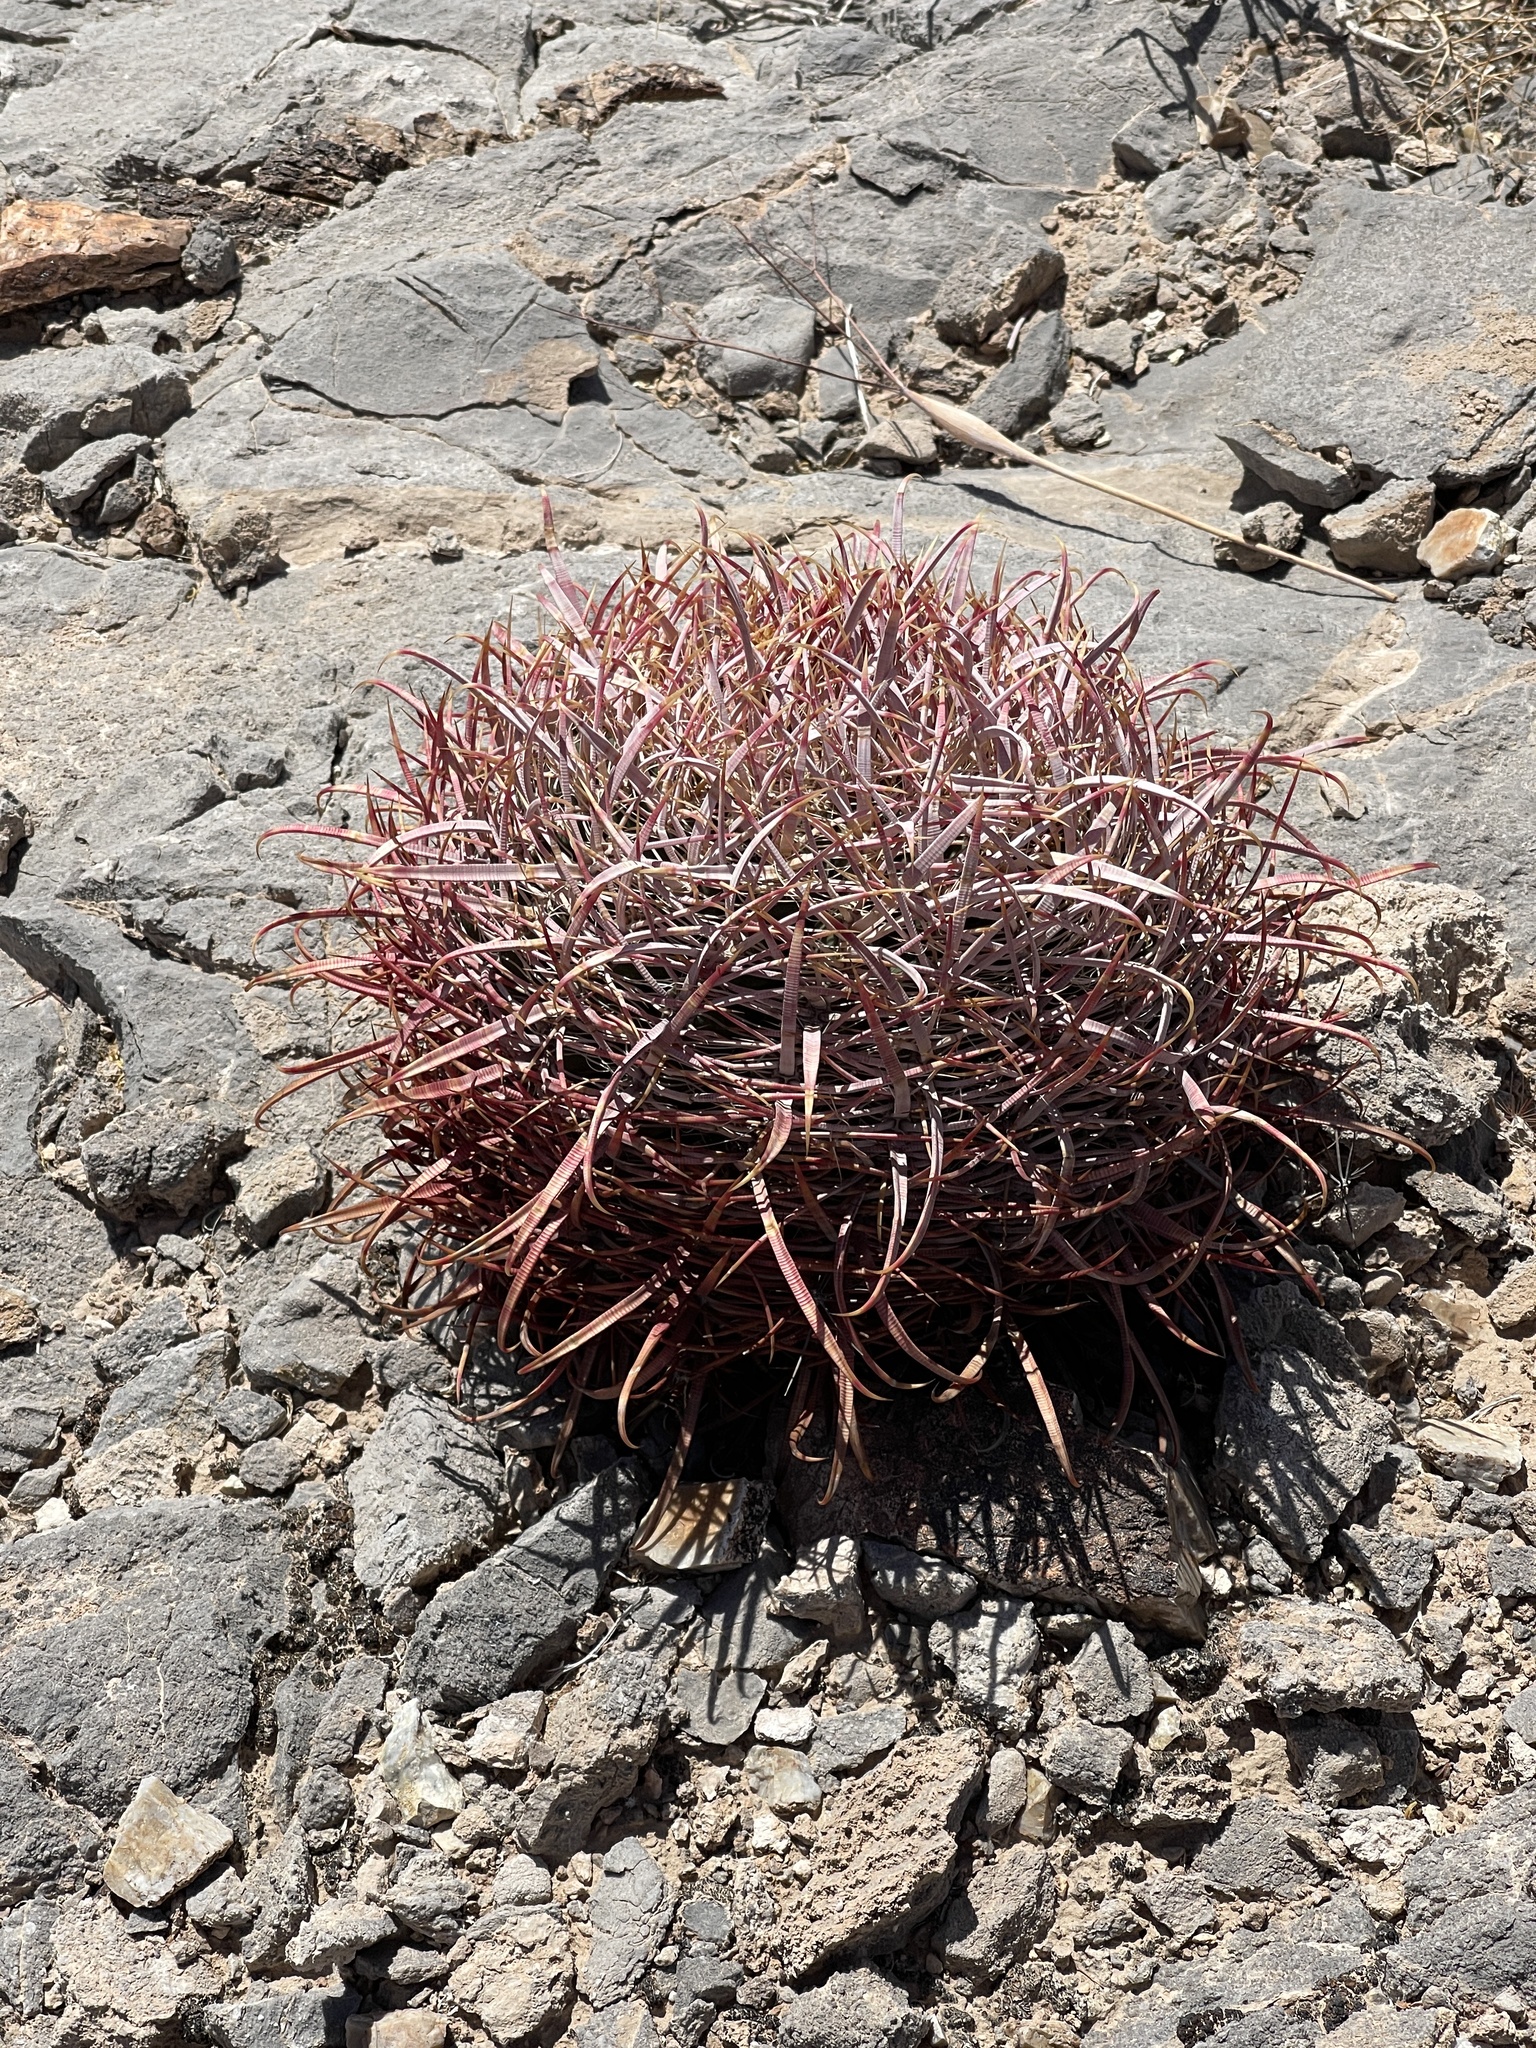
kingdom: Plantae
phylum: Tracheophyta
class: Magnoliopsida
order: Caryophyllales
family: Cactaceae
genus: Ferocactus
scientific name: Ferocactus cylindraceus
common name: California barrel cactus
